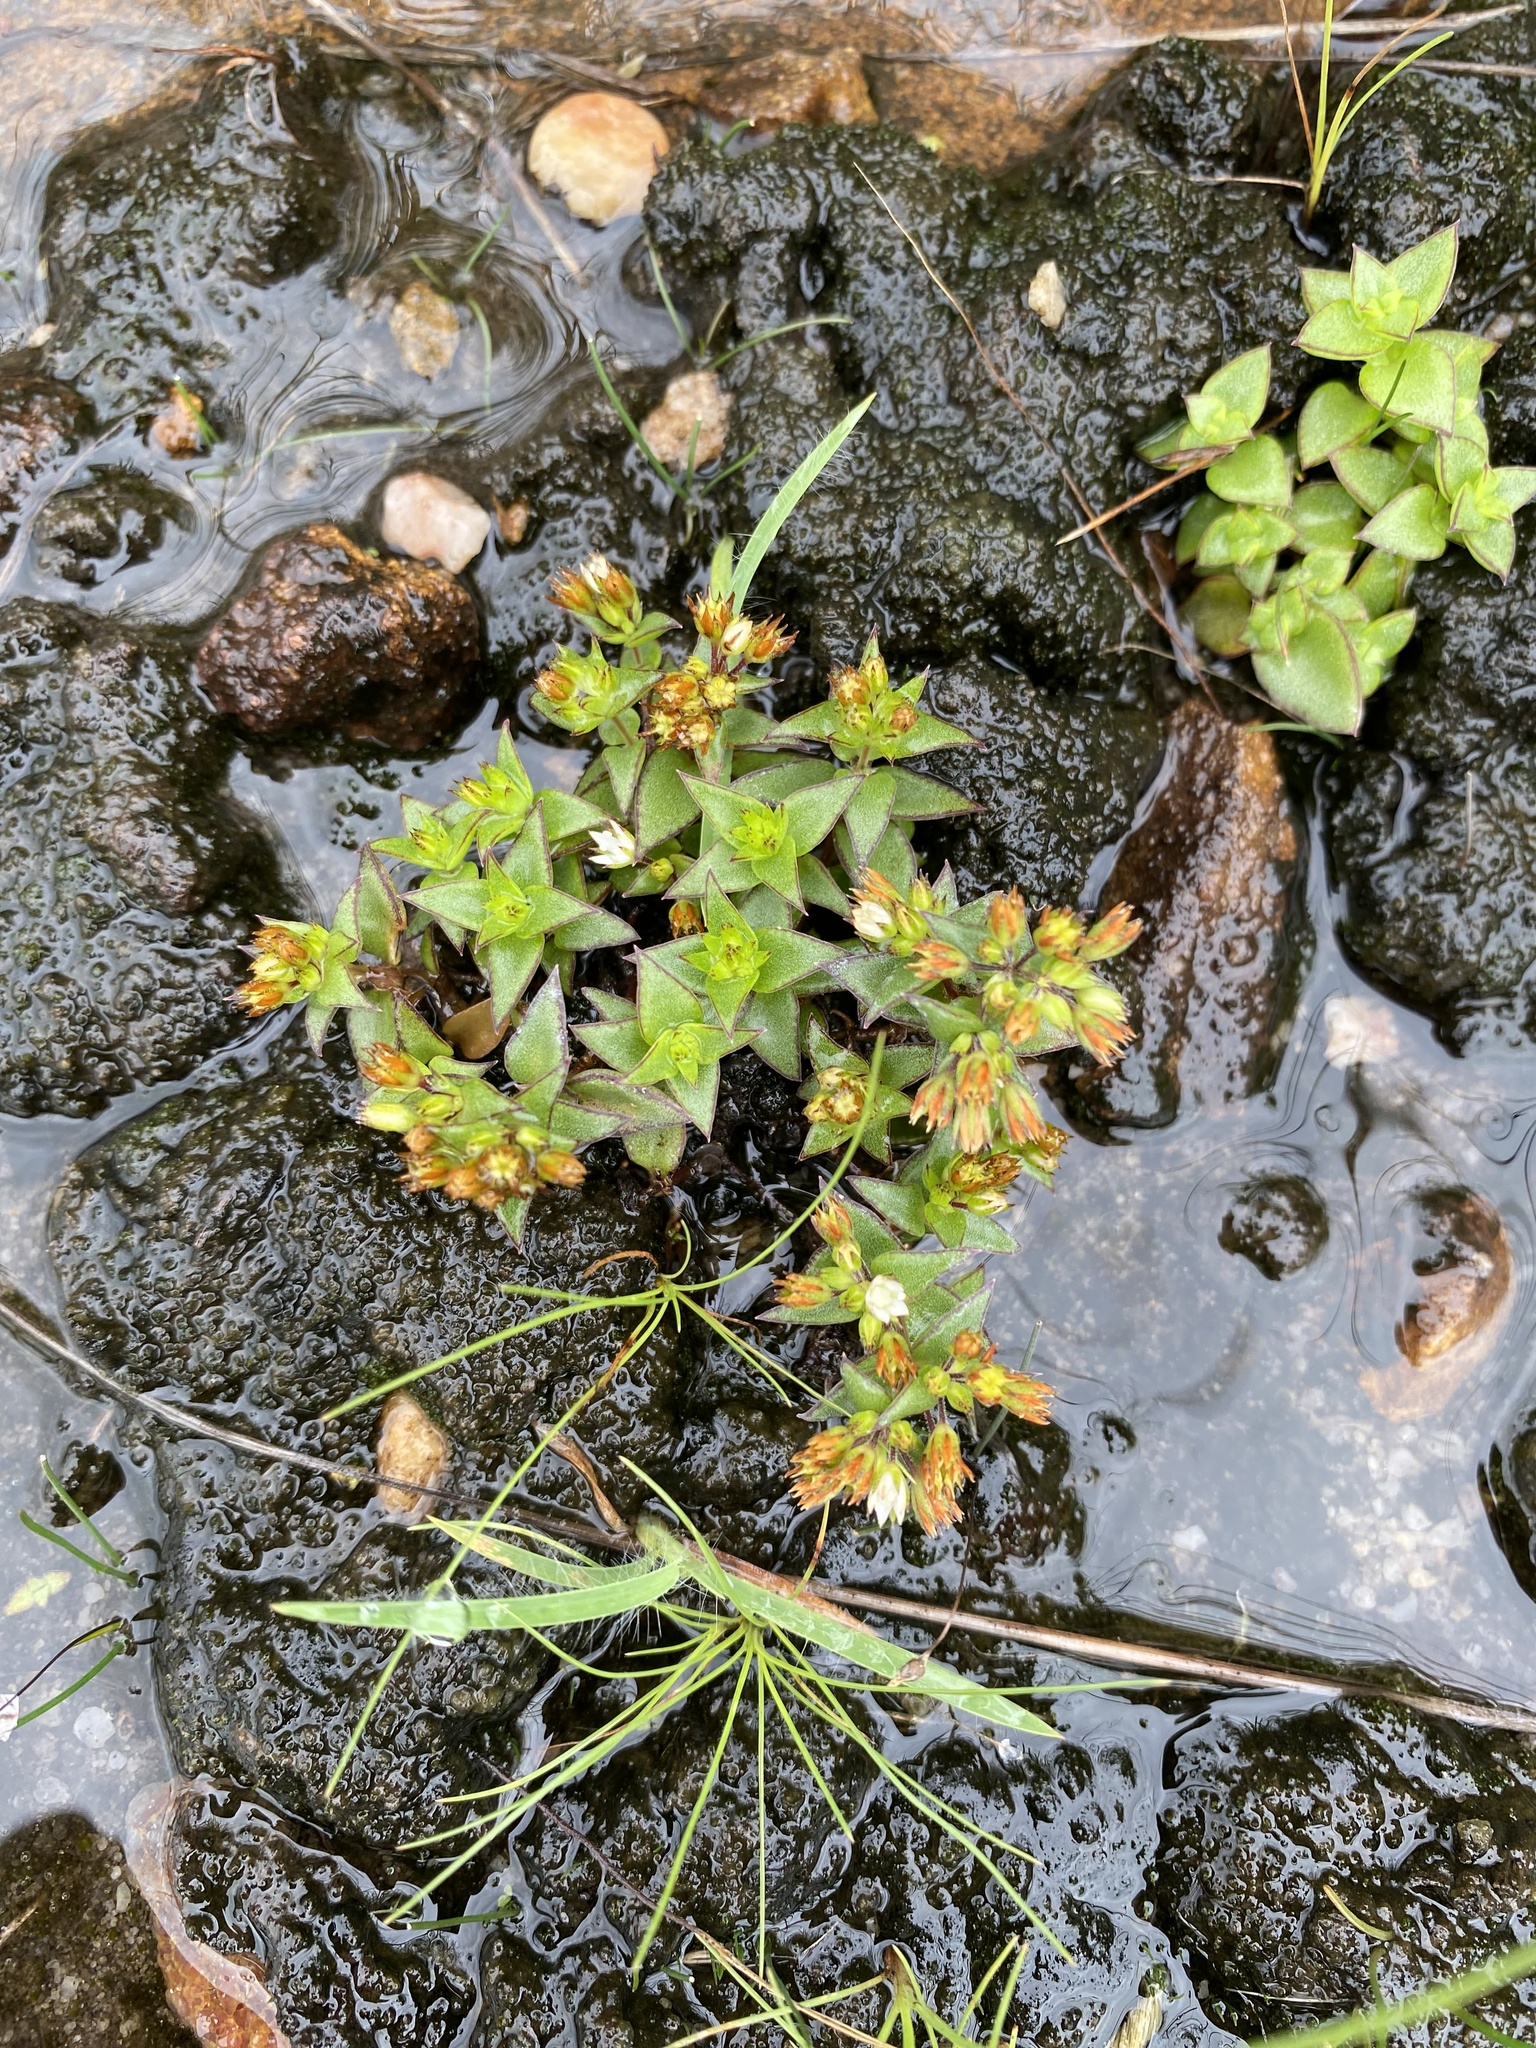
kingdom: Plantae
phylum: Tracheophyta
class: Magnoliopsida
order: Saxifragales
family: Crassulaceae
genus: Crassula
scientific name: Crassula pellucida
